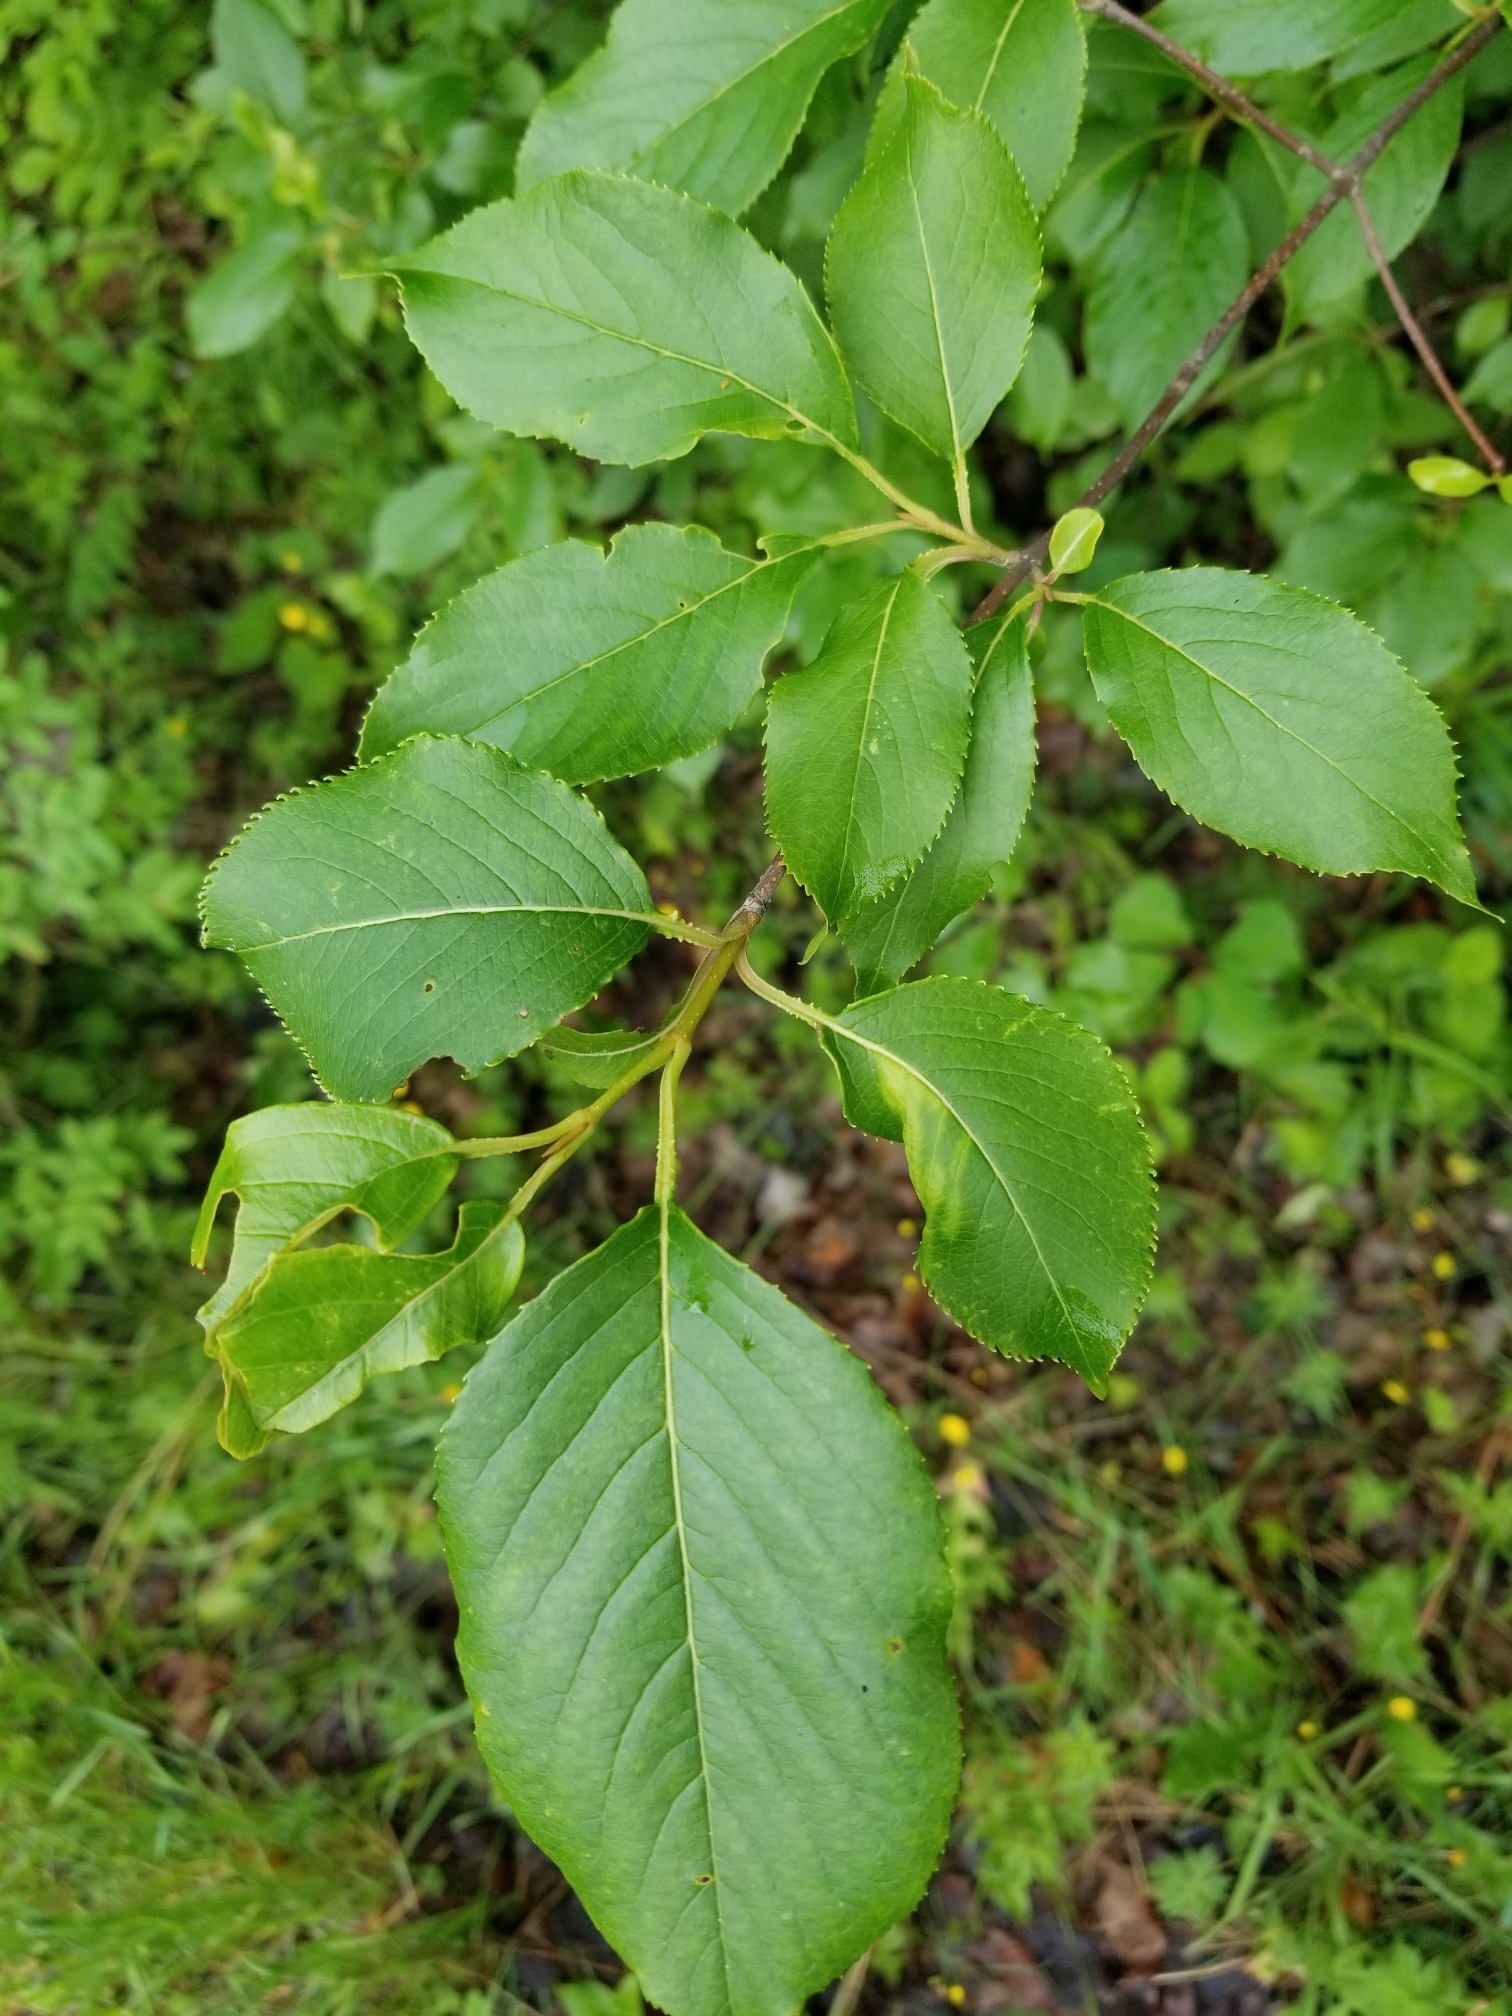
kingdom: Plantae
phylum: Tracheophyta
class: Magnoliopsida
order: Dipsacales
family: Viburnaceae
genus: Viburnum
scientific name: Viburnum lentago
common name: Black haw
